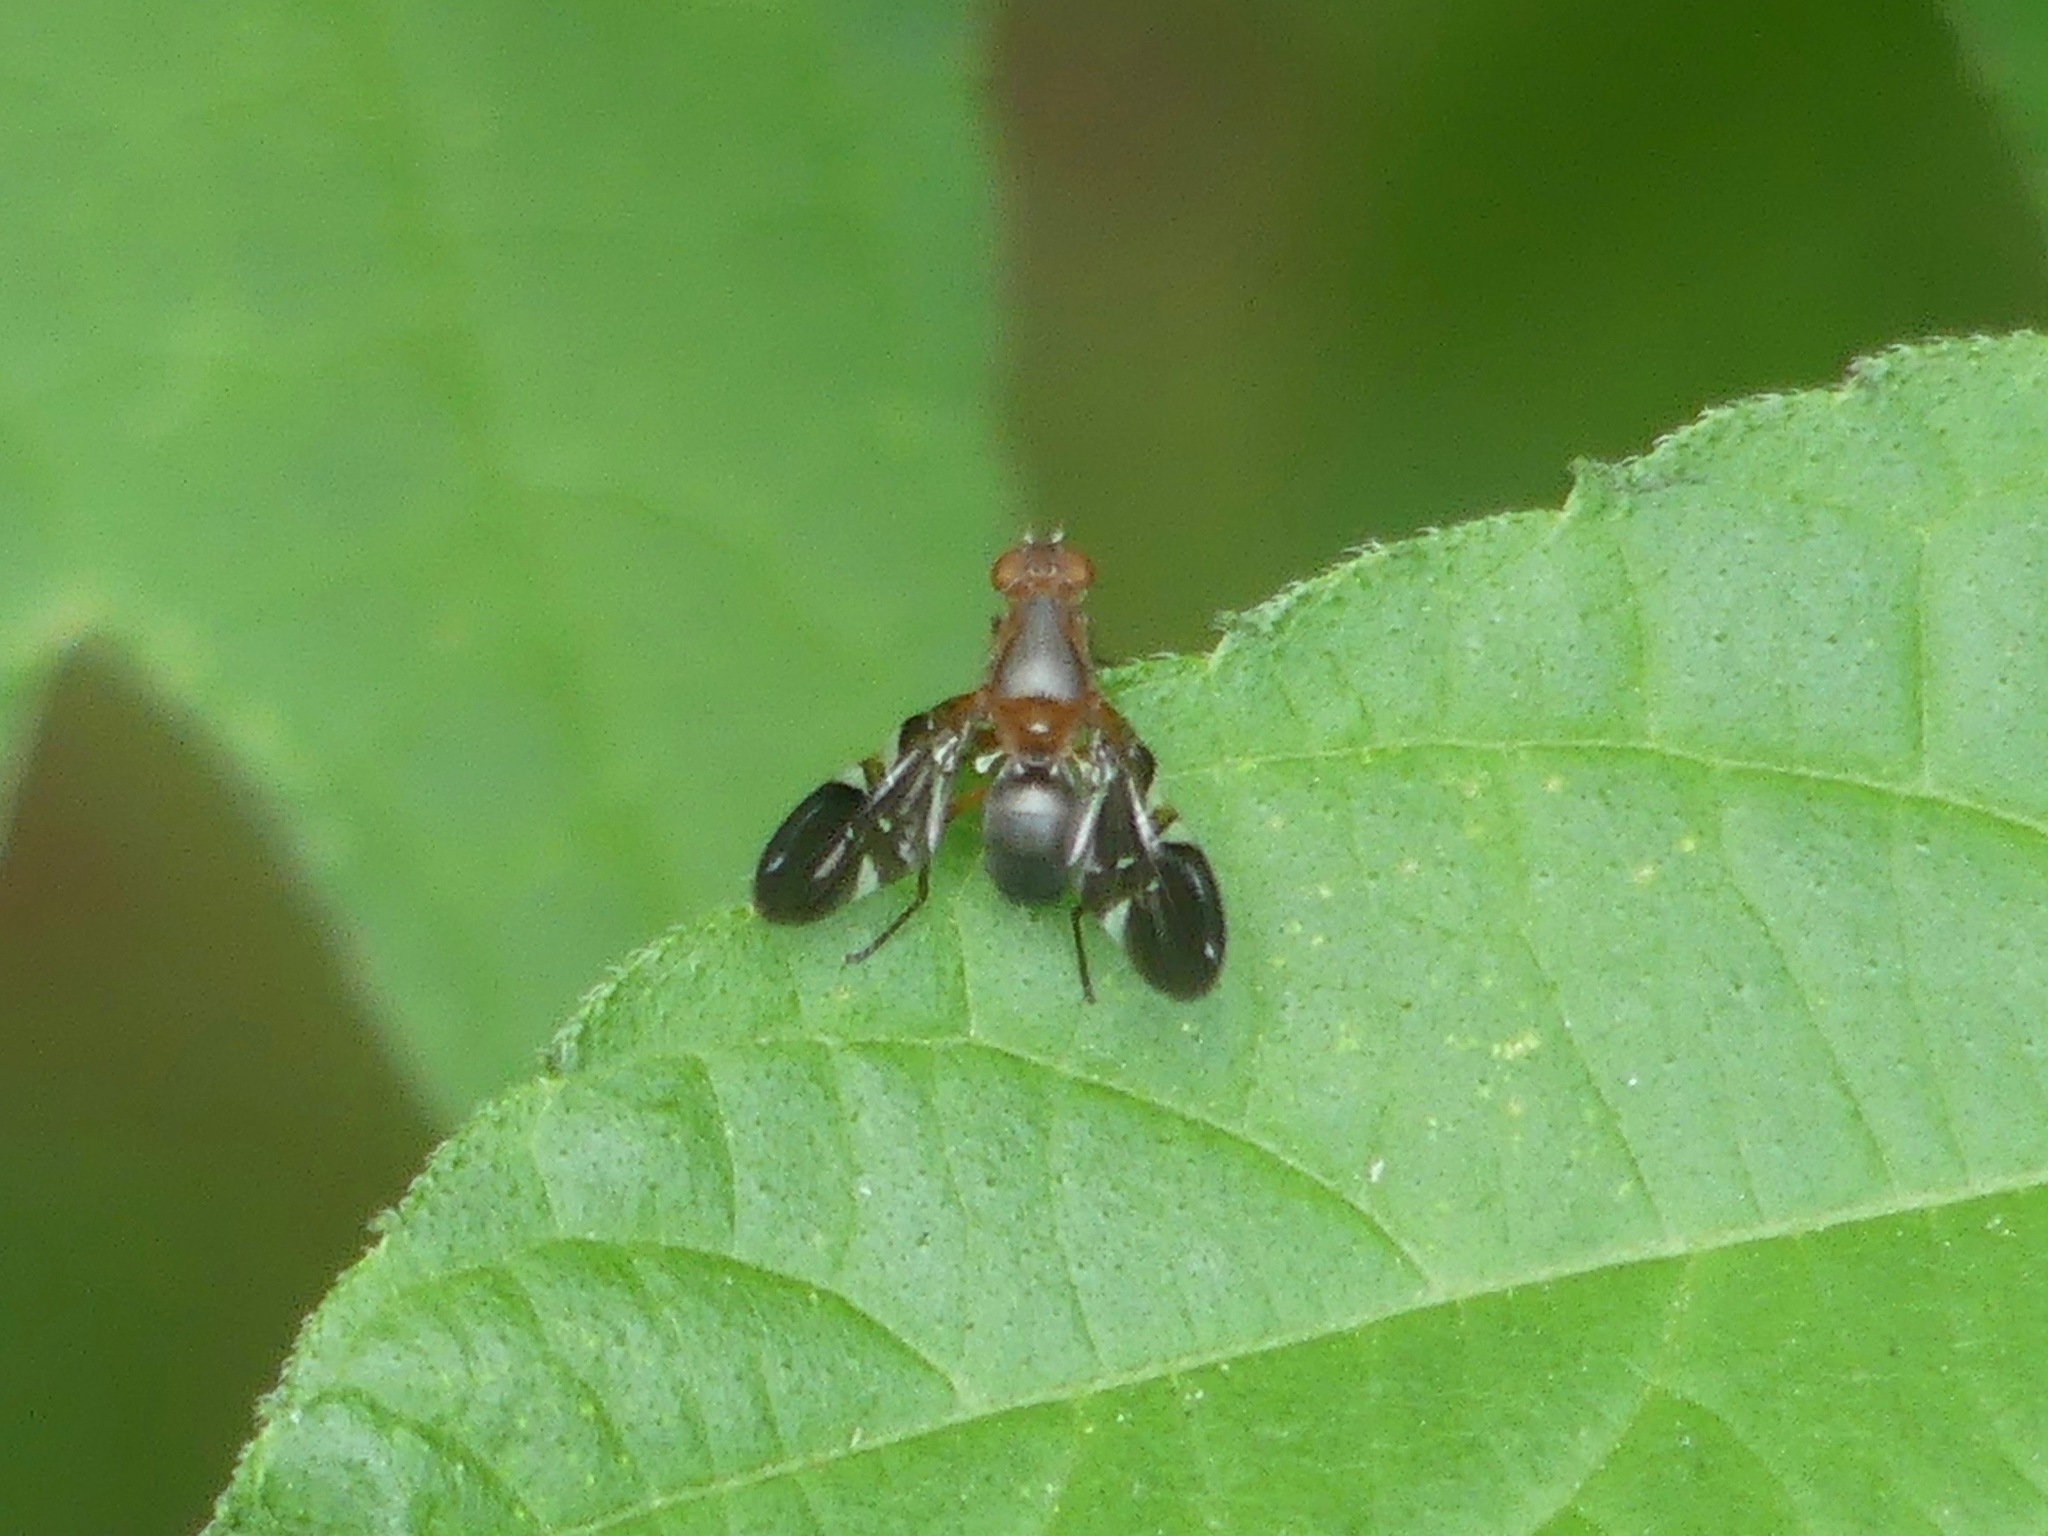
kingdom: Animalia
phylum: Arthropoda
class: Insecta
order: Diptera
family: Ulidiidae
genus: Delphinia
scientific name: Delphinia picta
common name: Common picture-winged fly
